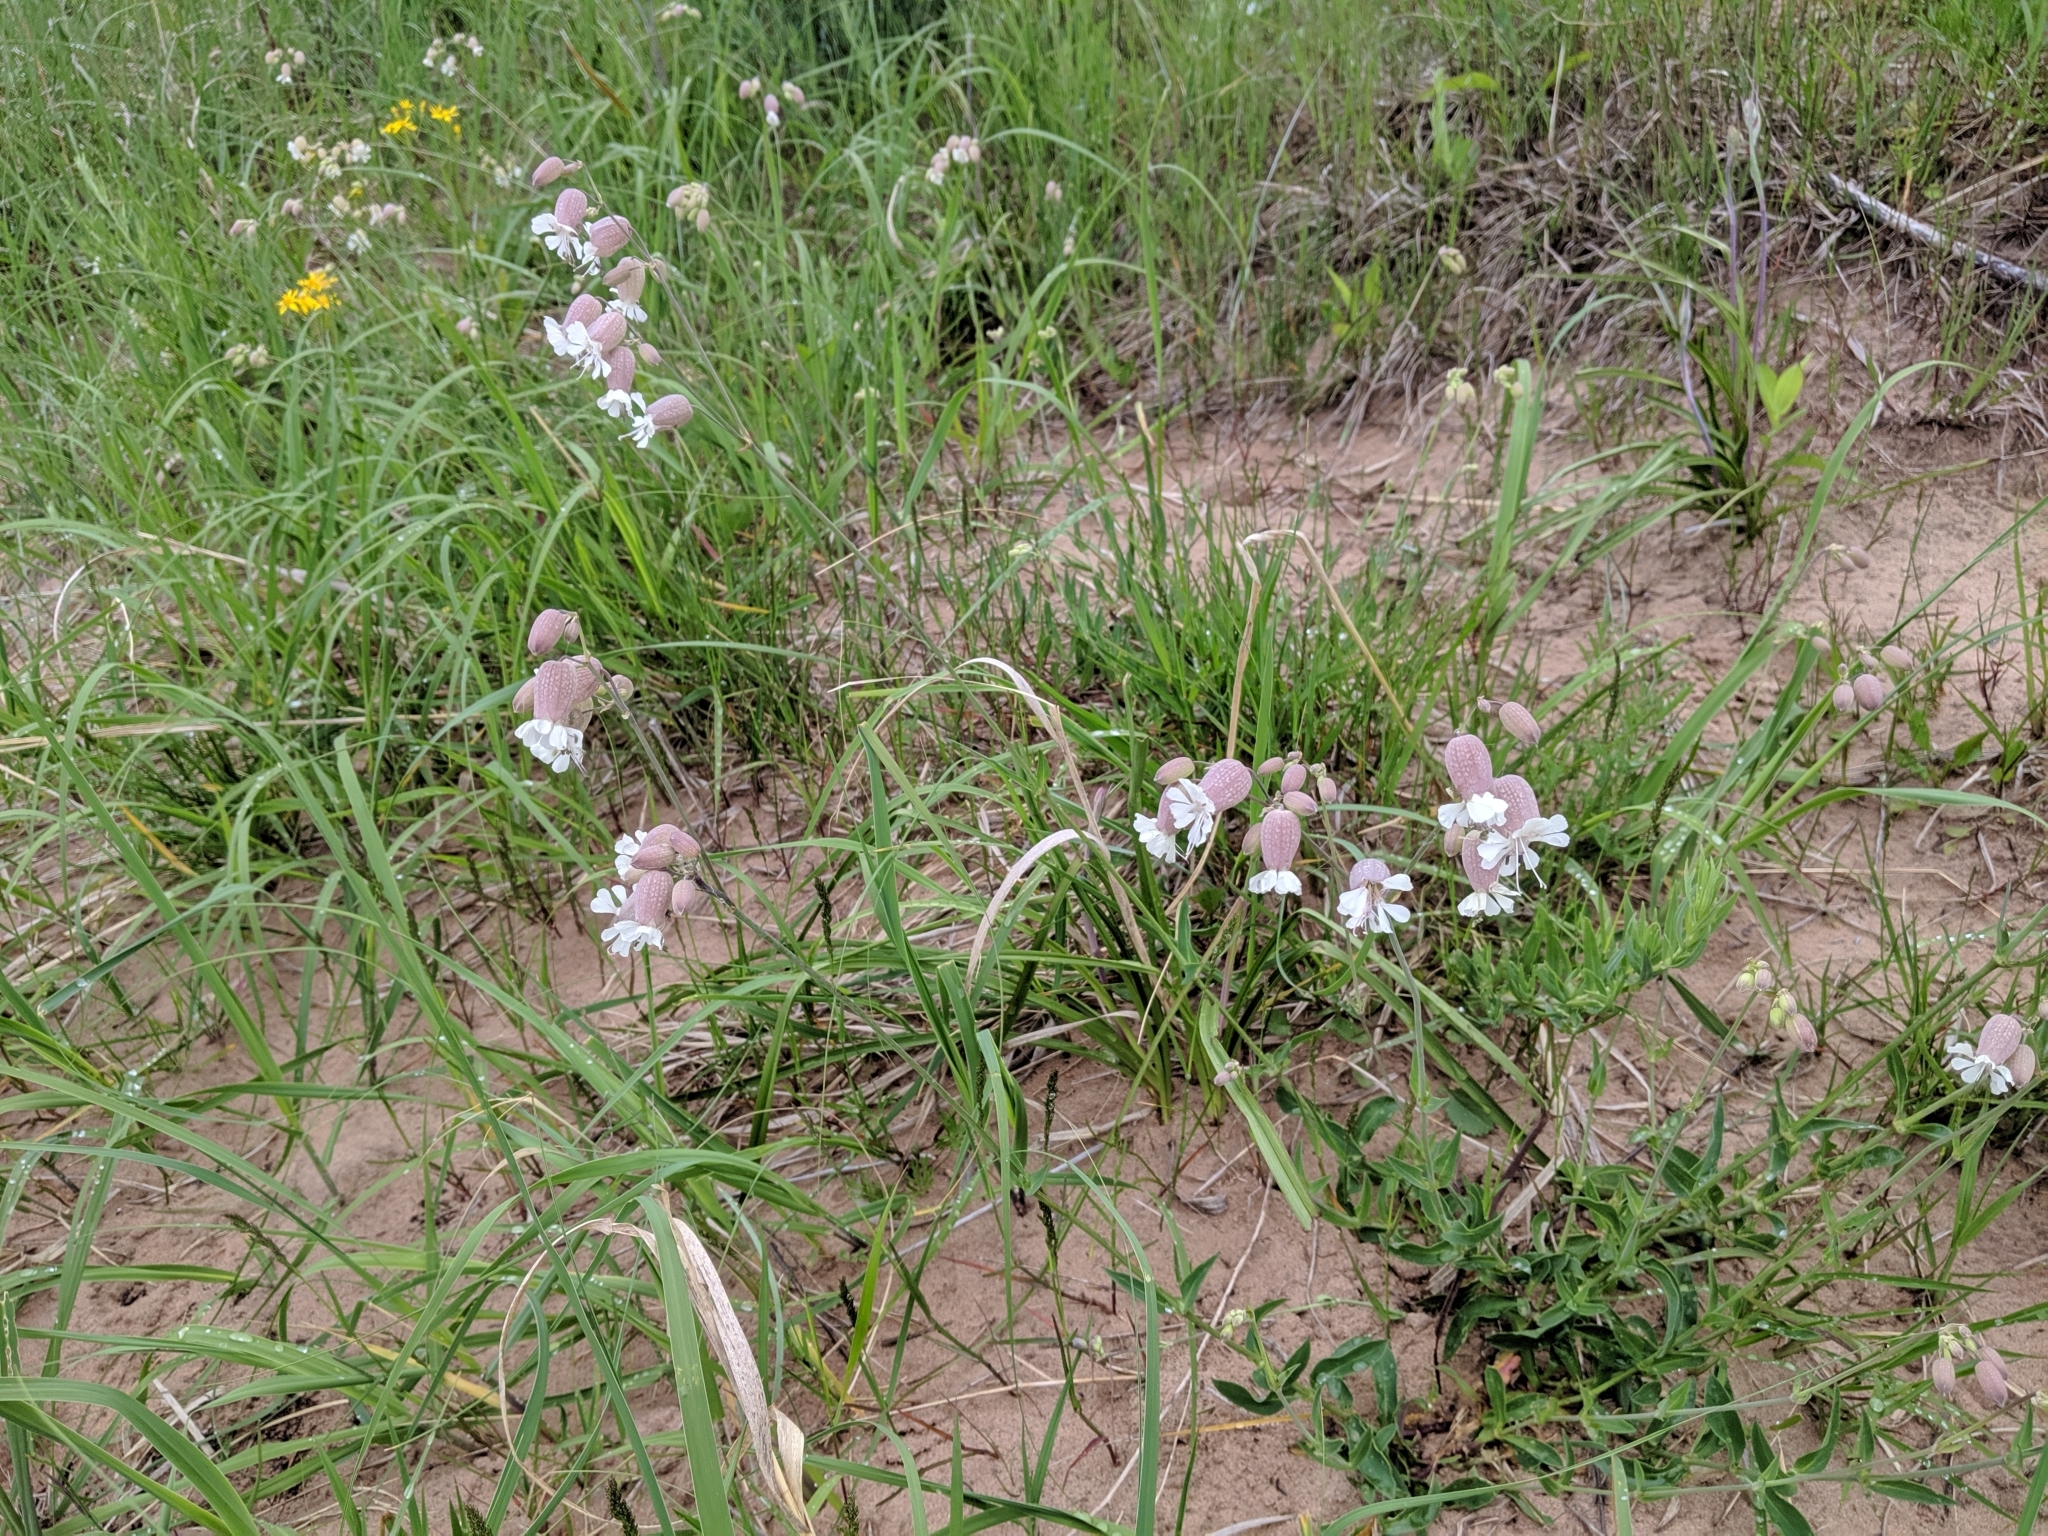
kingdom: Plantae
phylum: Tracheophyta
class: Magnoliopsida
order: Caryophyllales
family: Caryophyllaceae
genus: Silene
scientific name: Silene vulgaris
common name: Bladder campion
